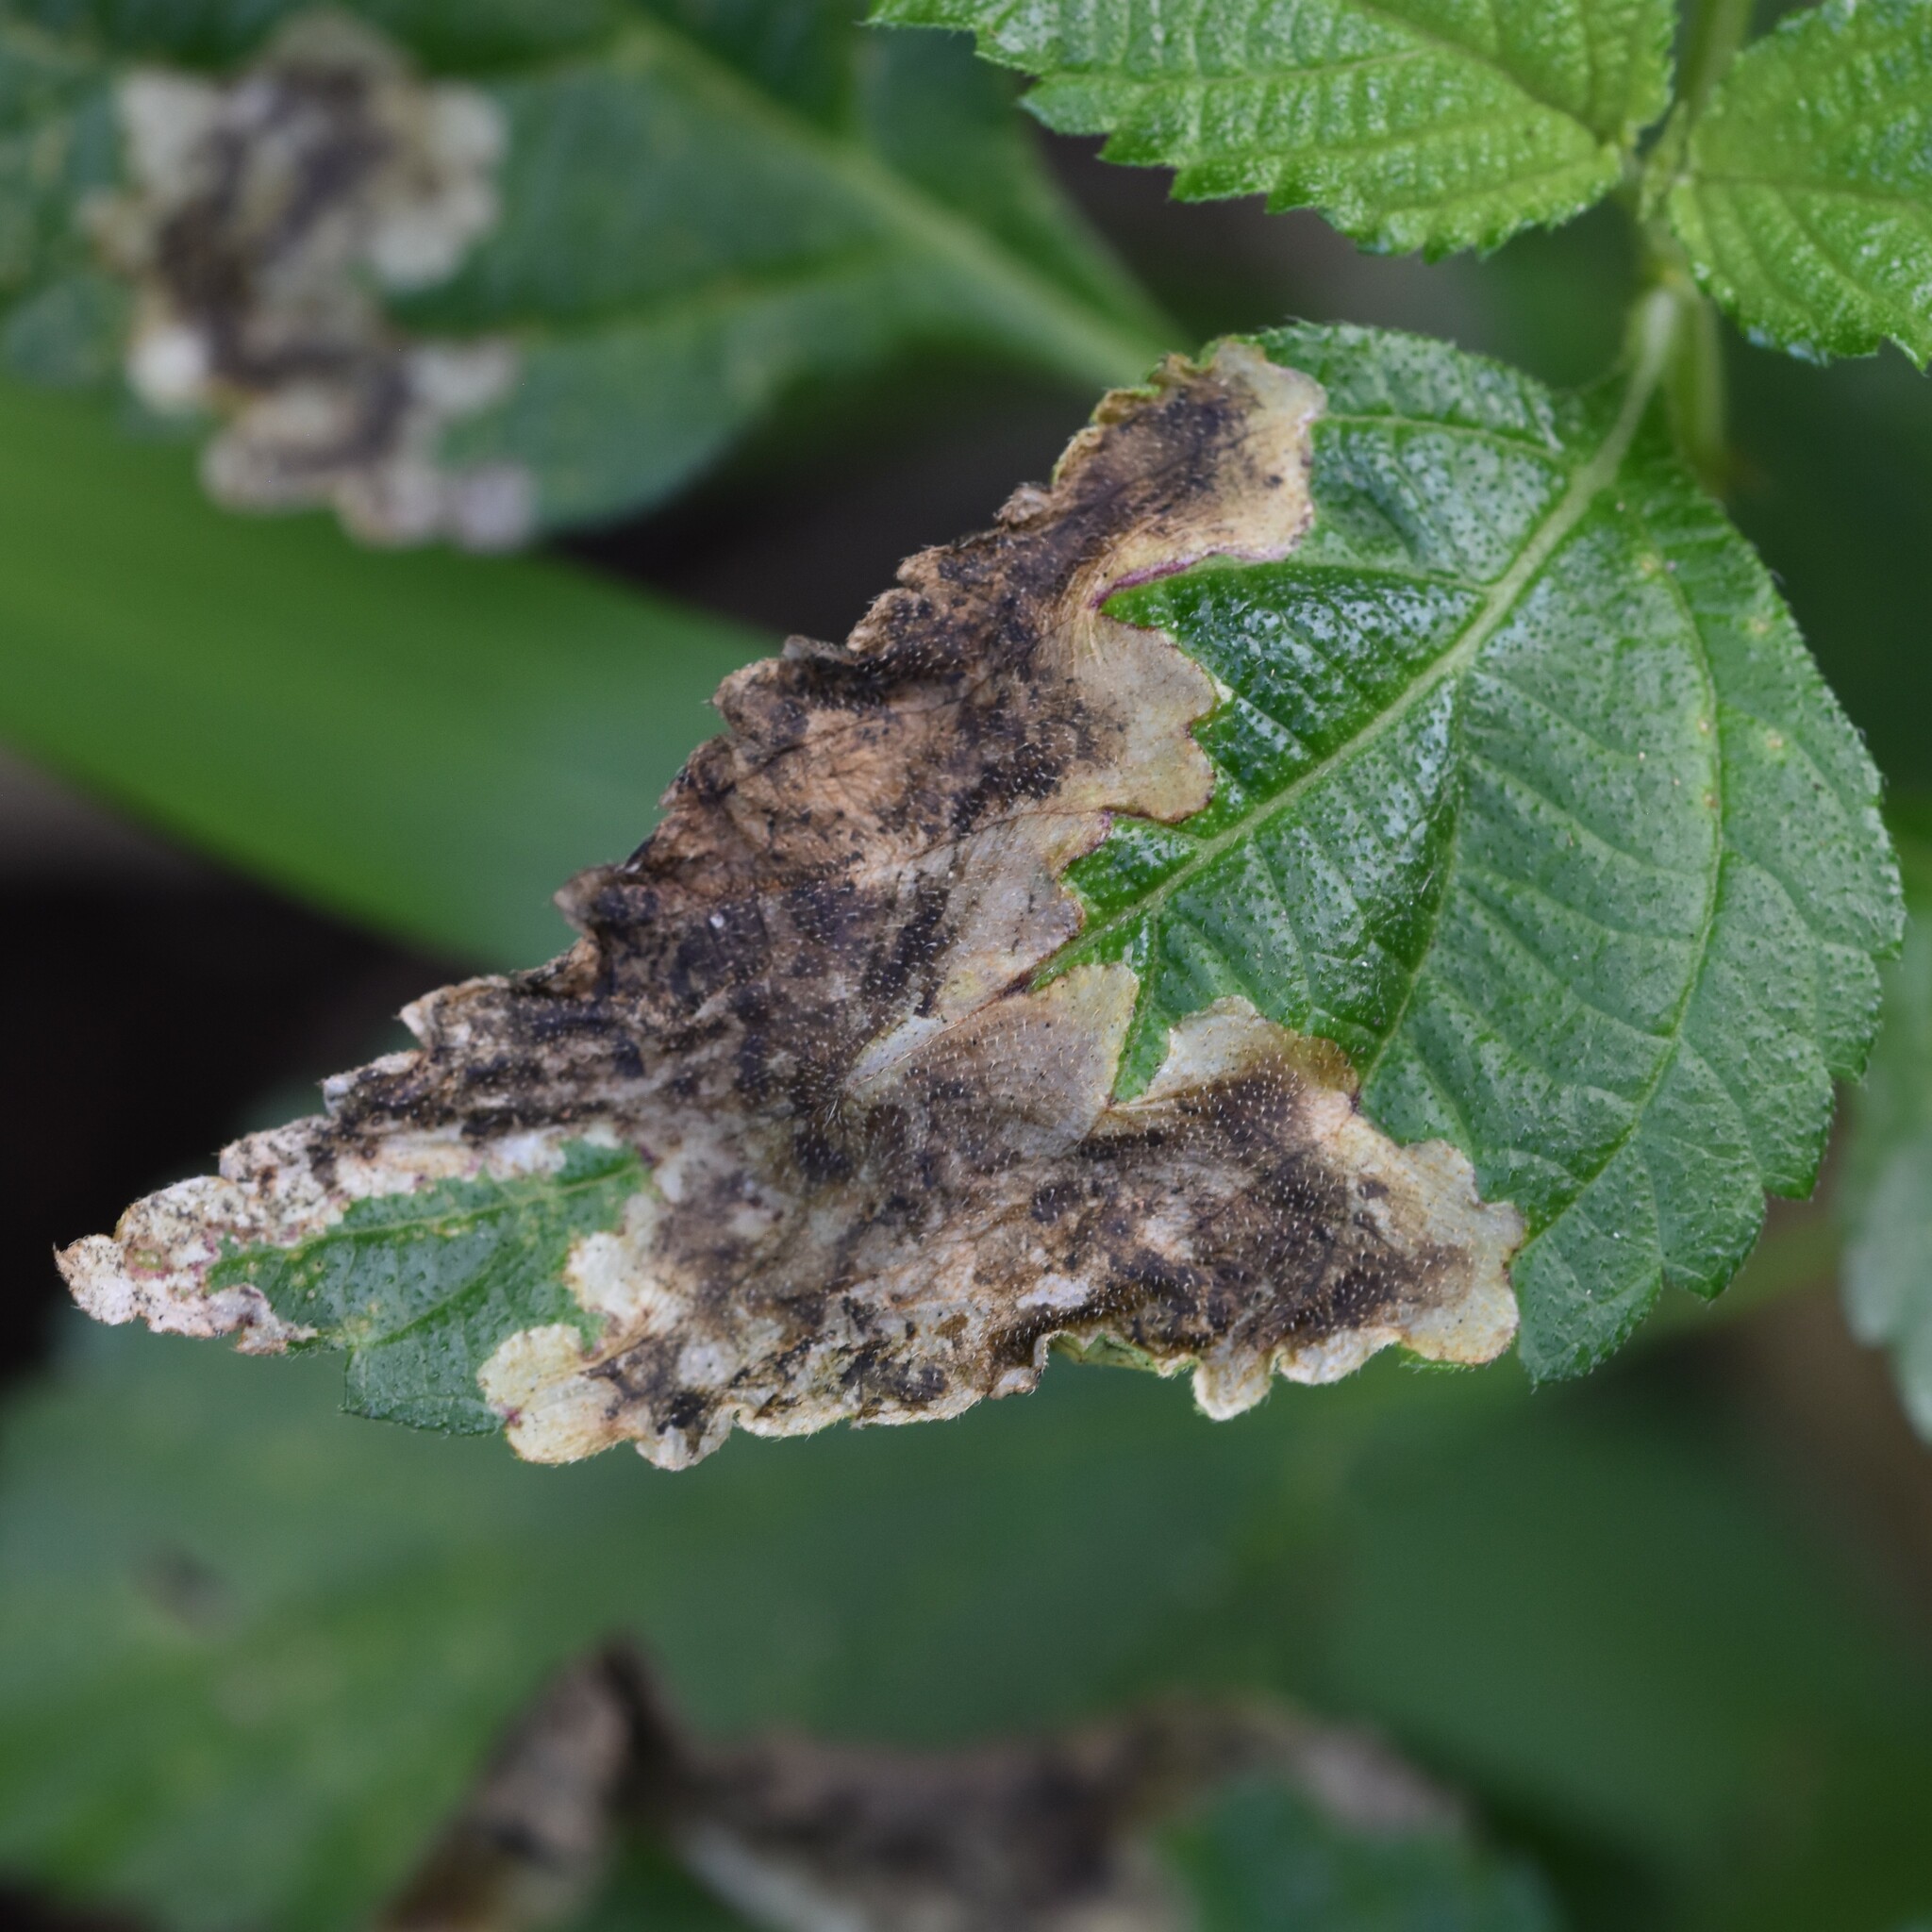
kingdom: Animalia
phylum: Arthropoda
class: Insecta
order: Diptera
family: Agromyzidae
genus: Calycomyza
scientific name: Calycomyza lantanae
